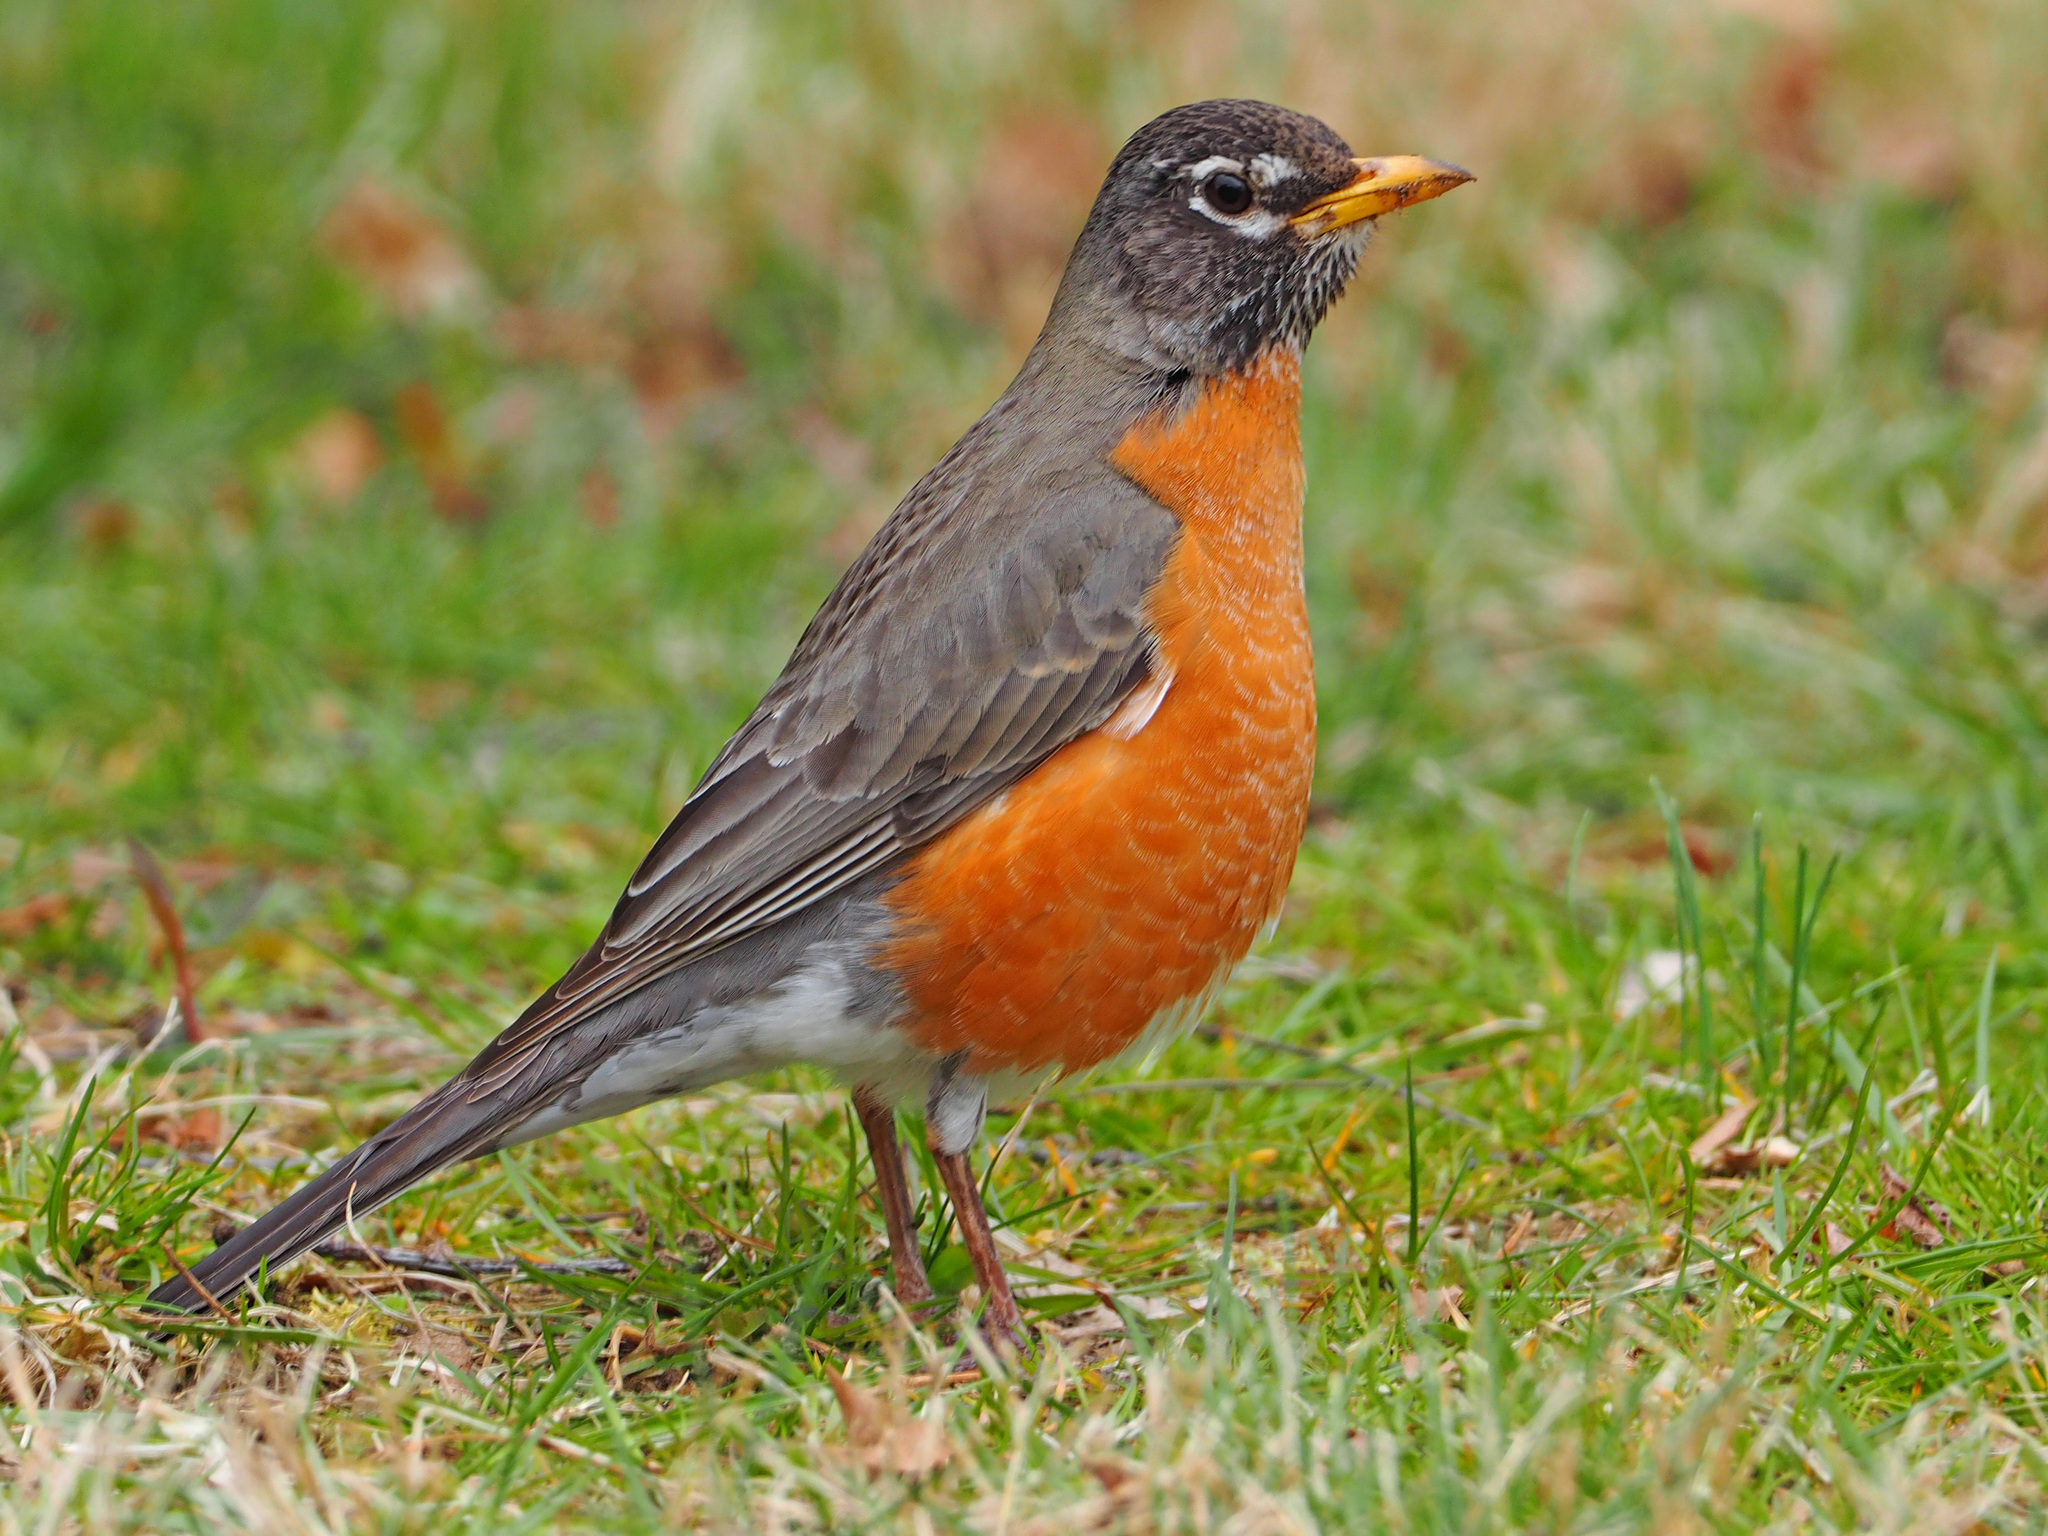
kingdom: Animalia
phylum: Chordata
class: Aves
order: Passeriformes
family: Turdidae
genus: Turdus
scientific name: Turdus migratorius
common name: American robin
